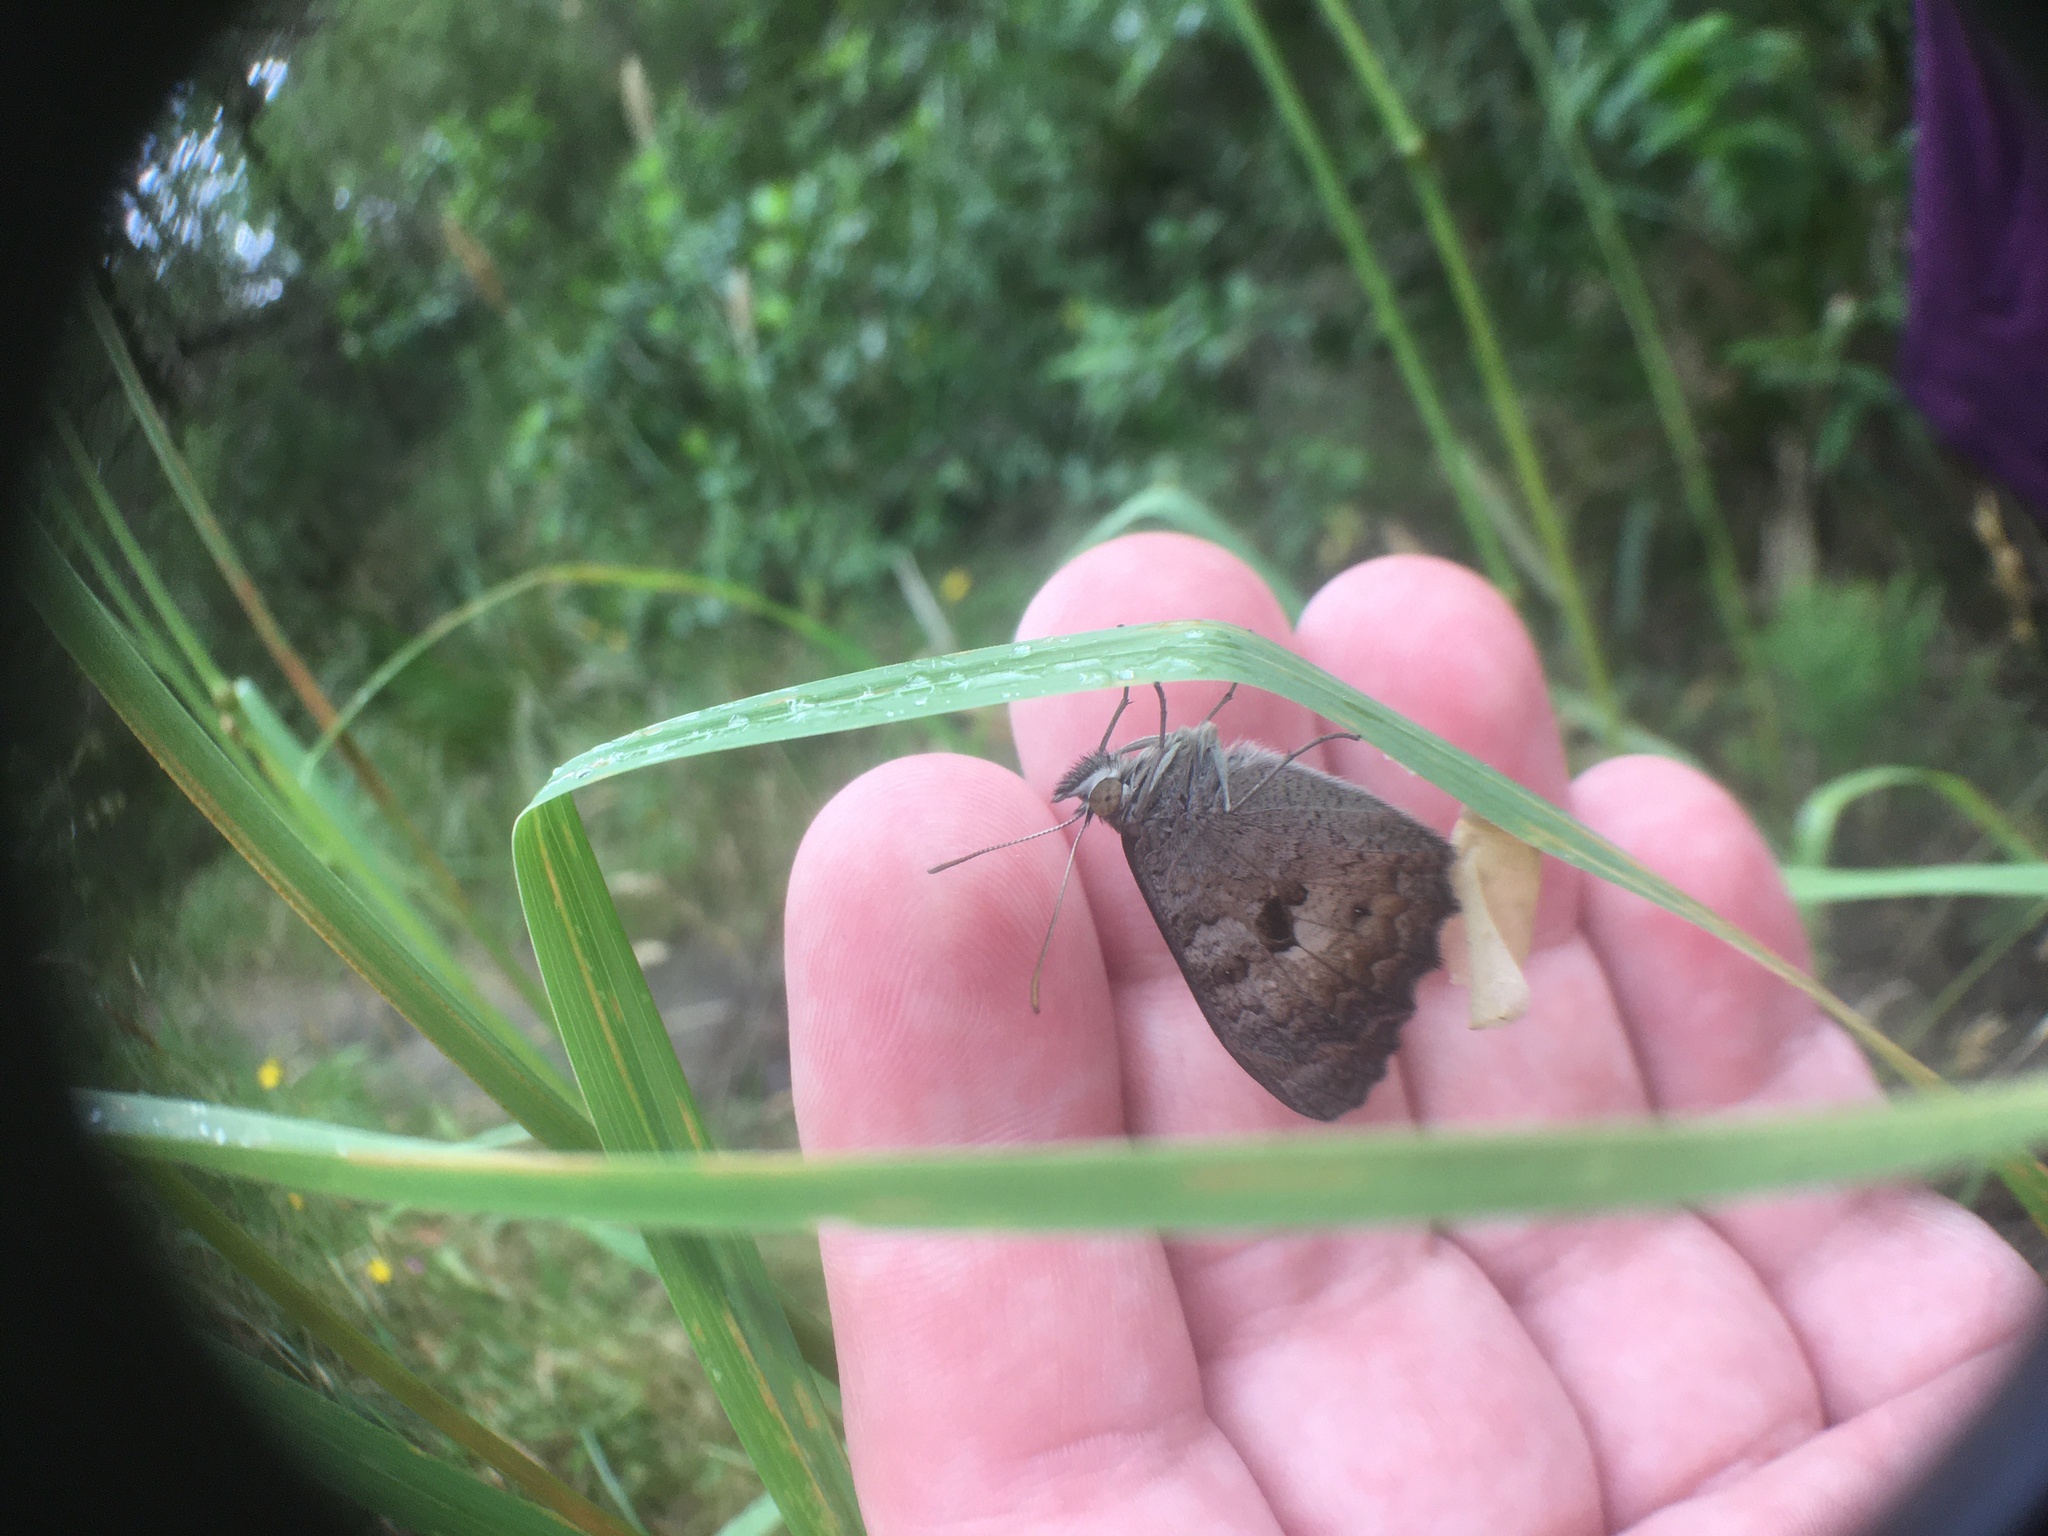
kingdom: Animalia
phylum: Arthropoda
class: Insecta
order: Lepidoptera
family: Nymphalidae
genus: Geitoneura
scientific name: Geitoneura klugii
